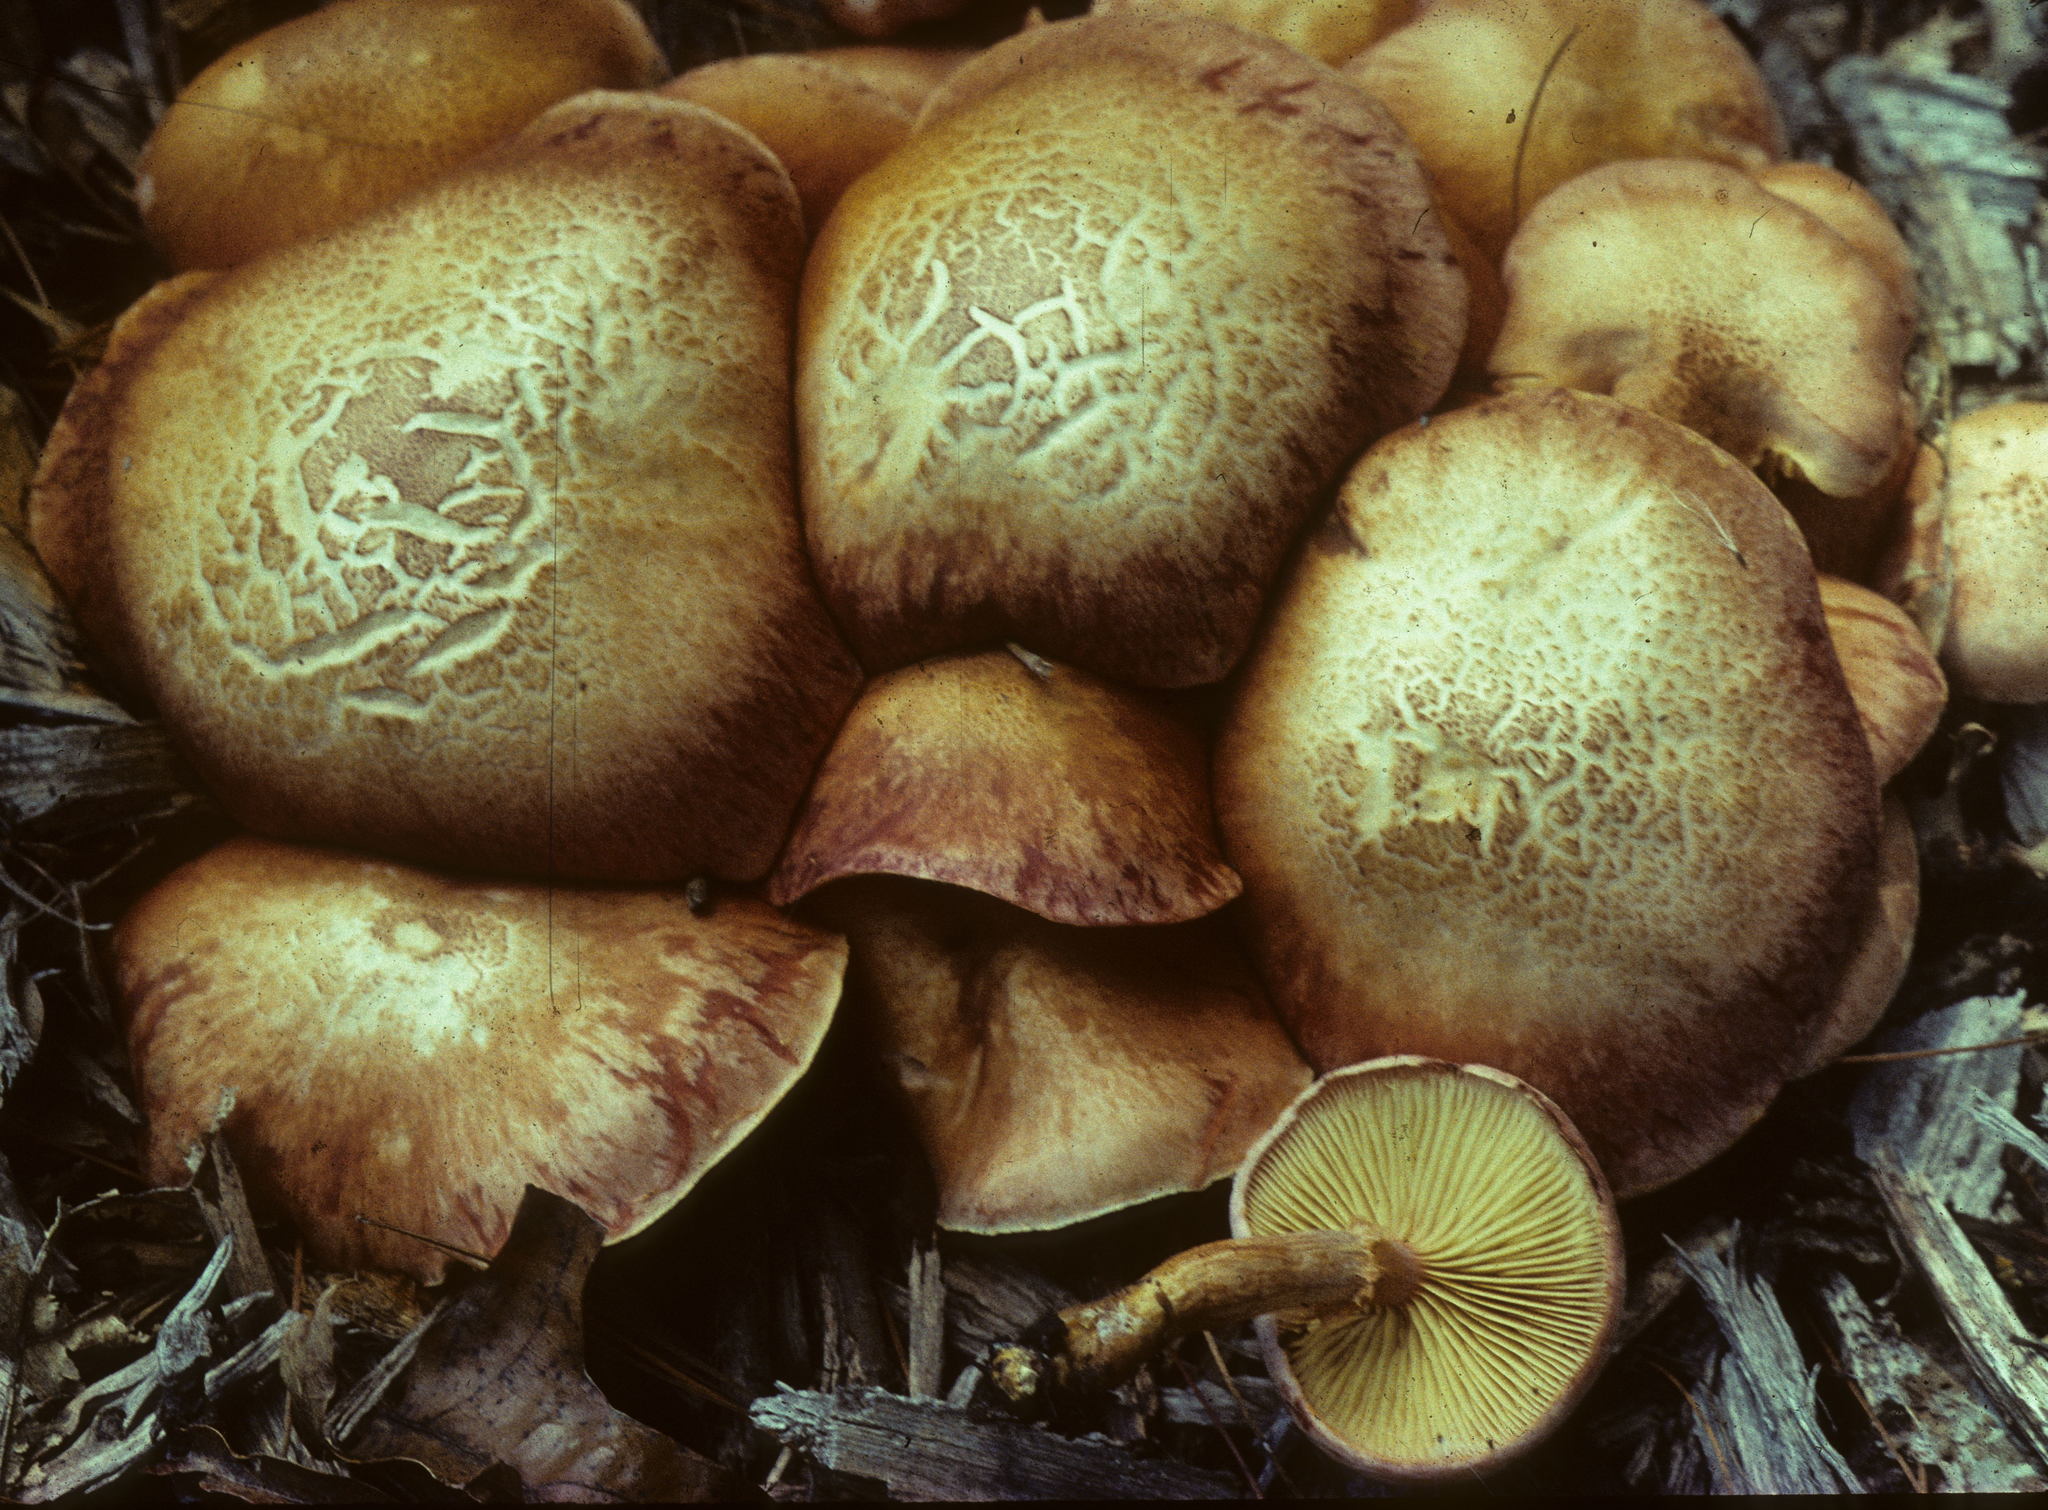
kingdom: Fungi
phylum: Basidiomycota
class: Agaricomycetes
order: Agaricales
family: Hymenogastraceae
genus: Gymnopilus
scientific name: Gymnopilus luteofolius
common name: Yellow-gilled gymnopilus
